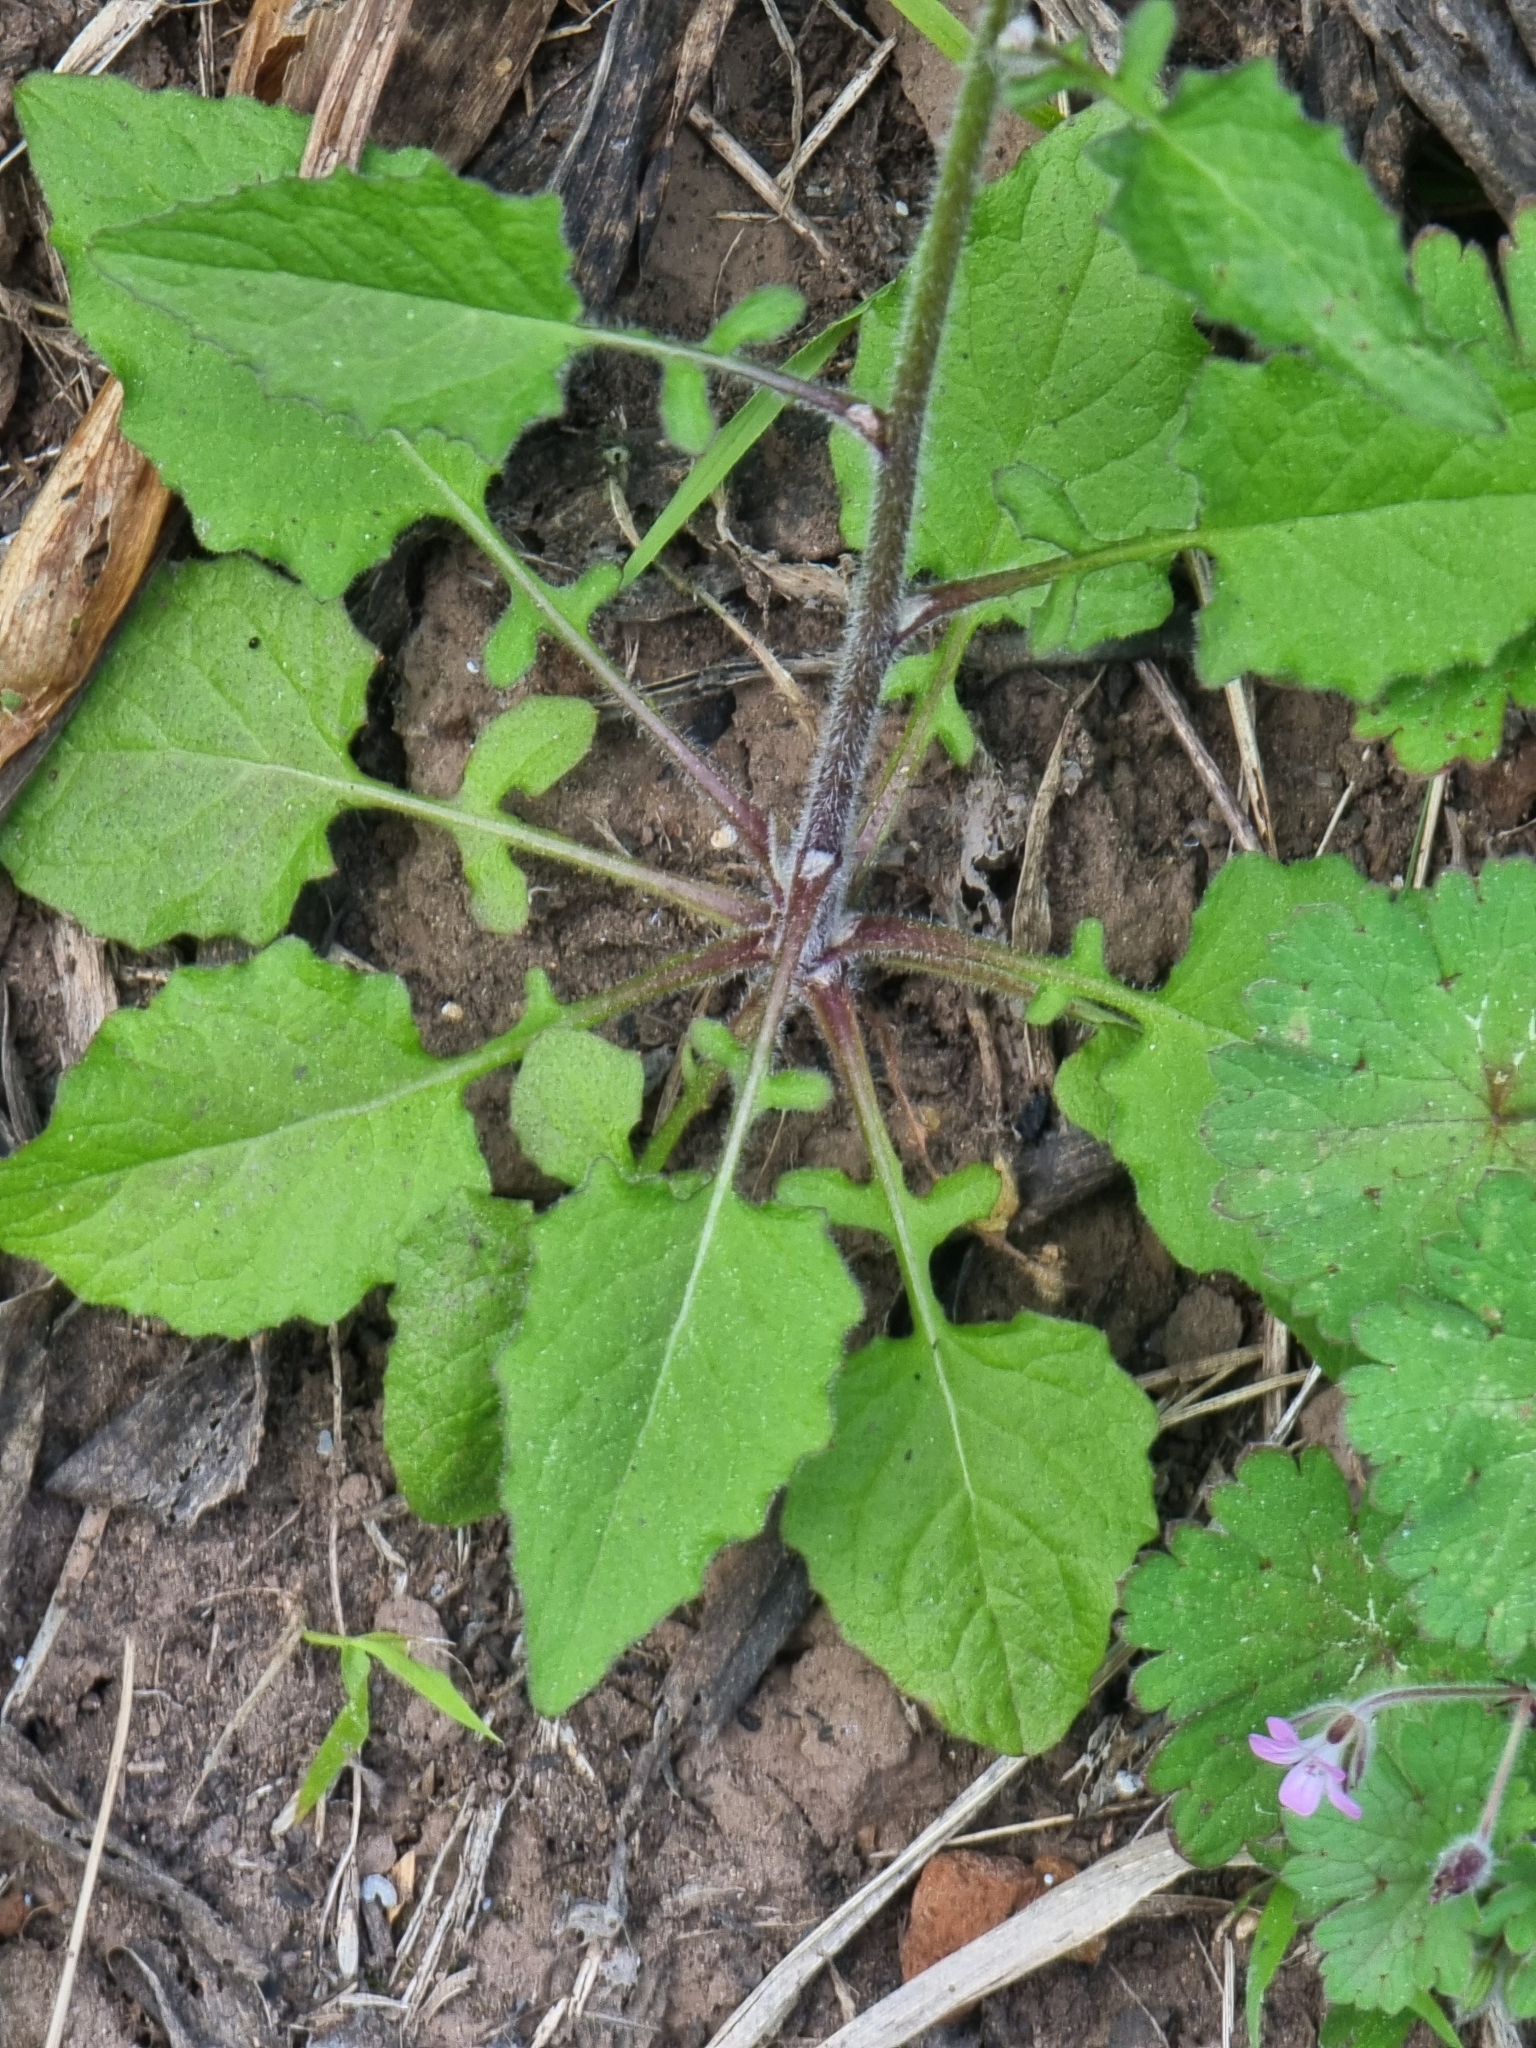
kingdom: Plantae
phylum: Tracheophyta
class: Magnoliopsida
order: Asterales
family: Asteraceae
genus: Lapsana
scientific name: Lapsana communis
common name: Nipplewort
